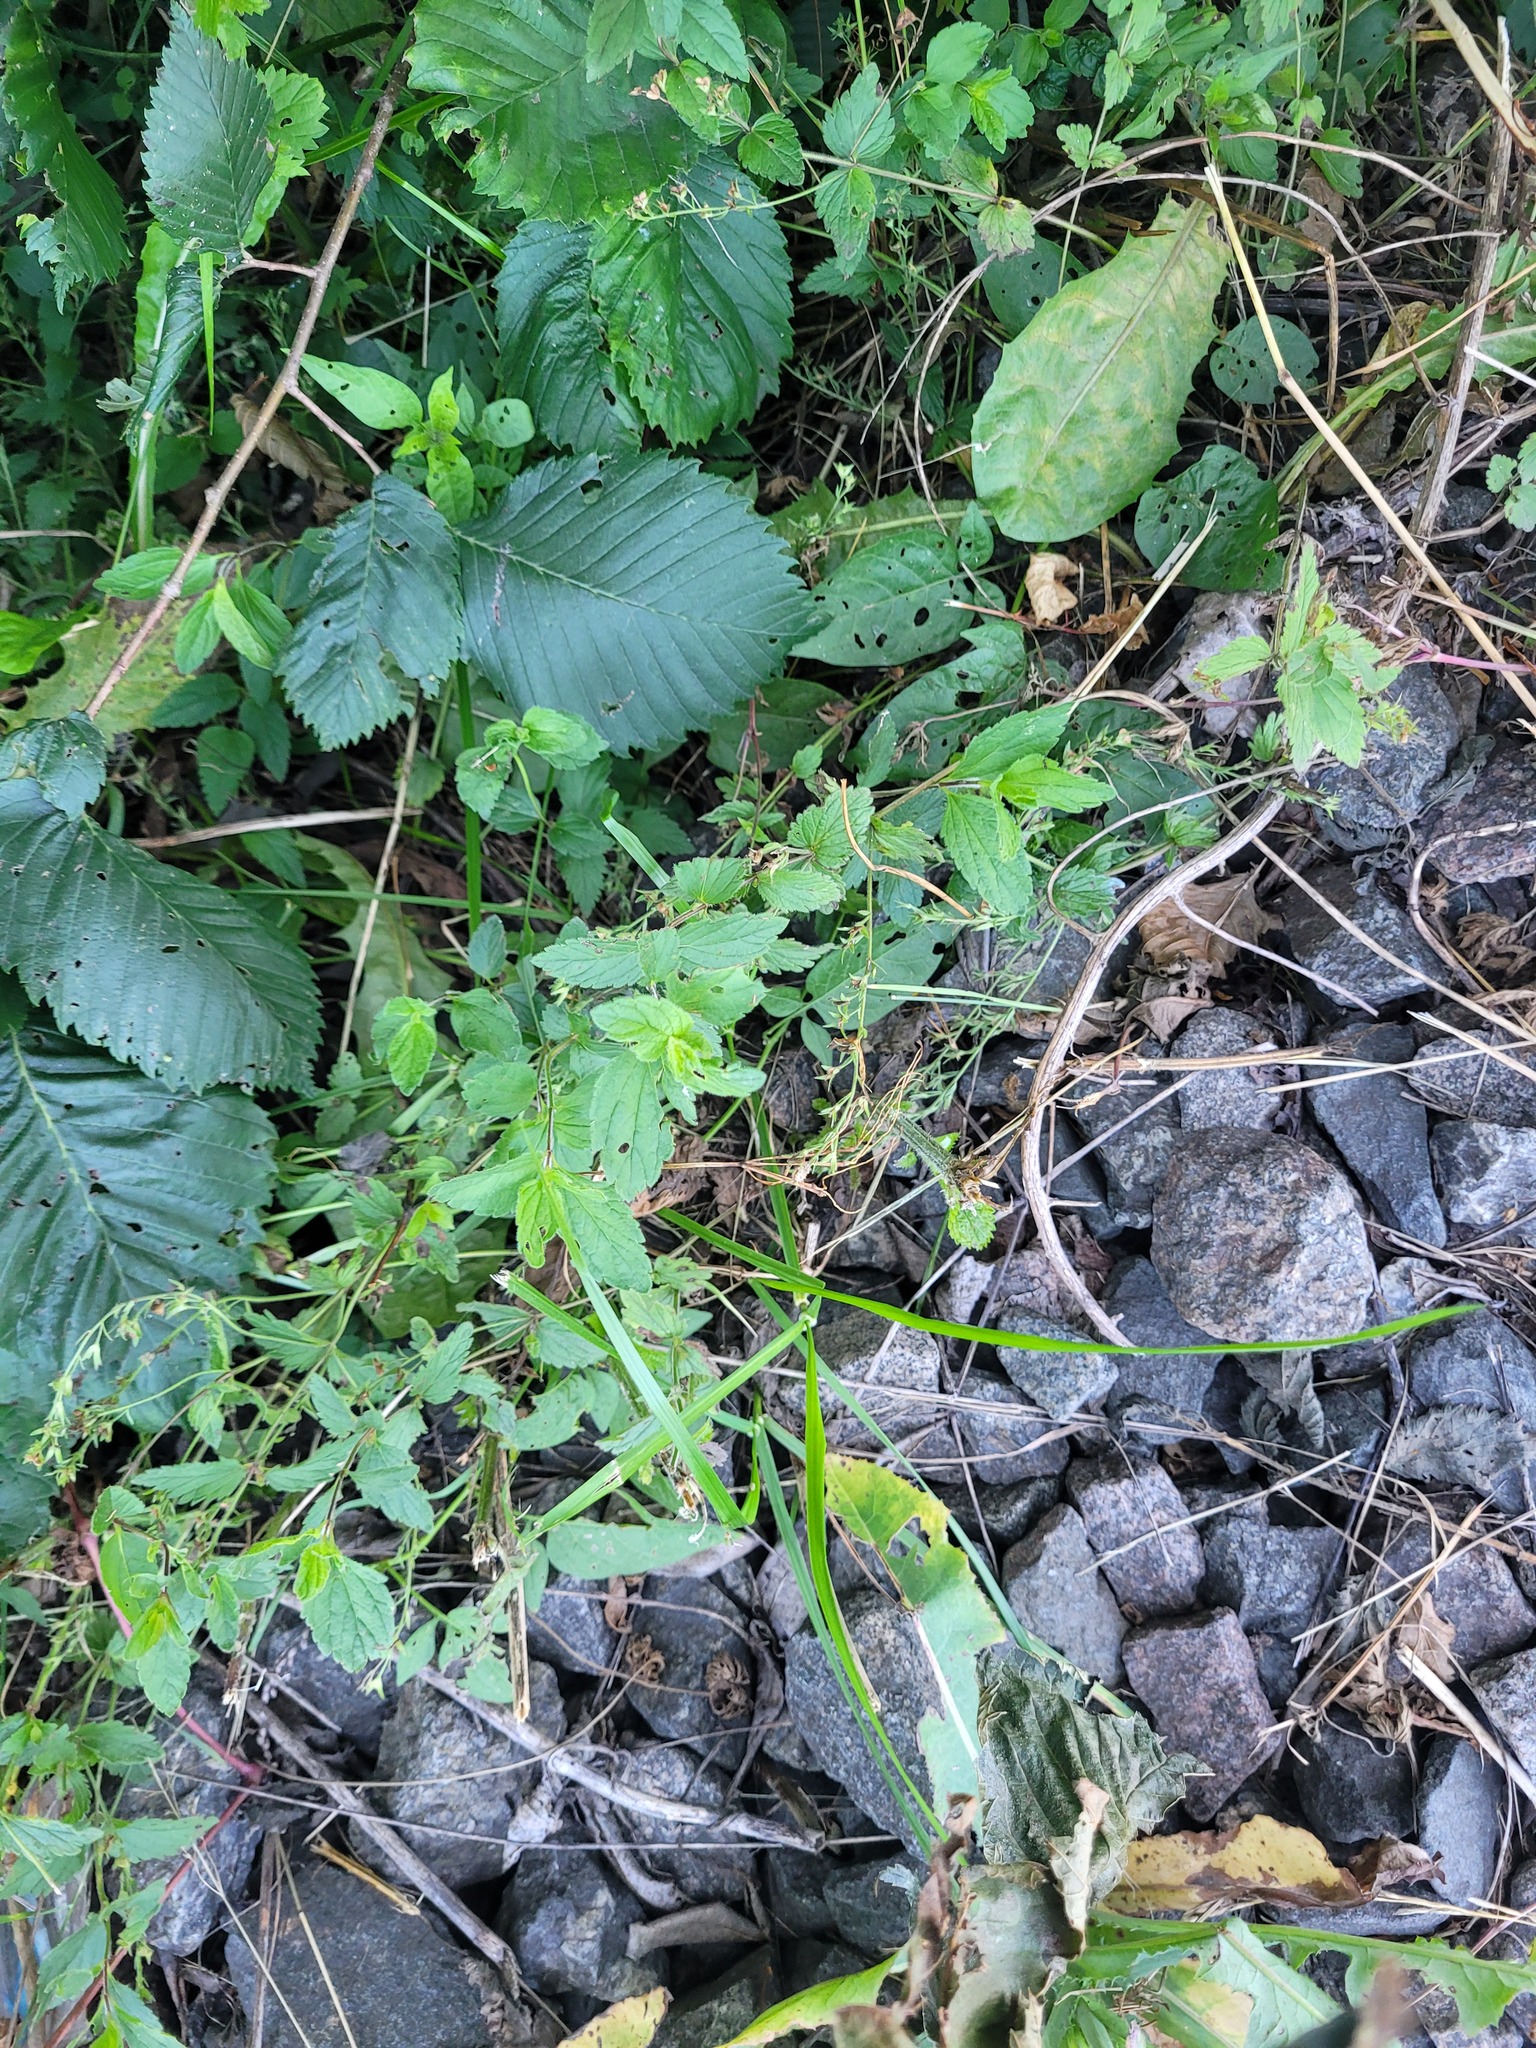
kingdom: Plantae
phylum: Tracheophyta
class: Magnoliopsida
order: Lamiales
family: Plantaginaceae
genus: Veronica
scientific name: Veronica chamaedrys
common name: Germander speedwell
